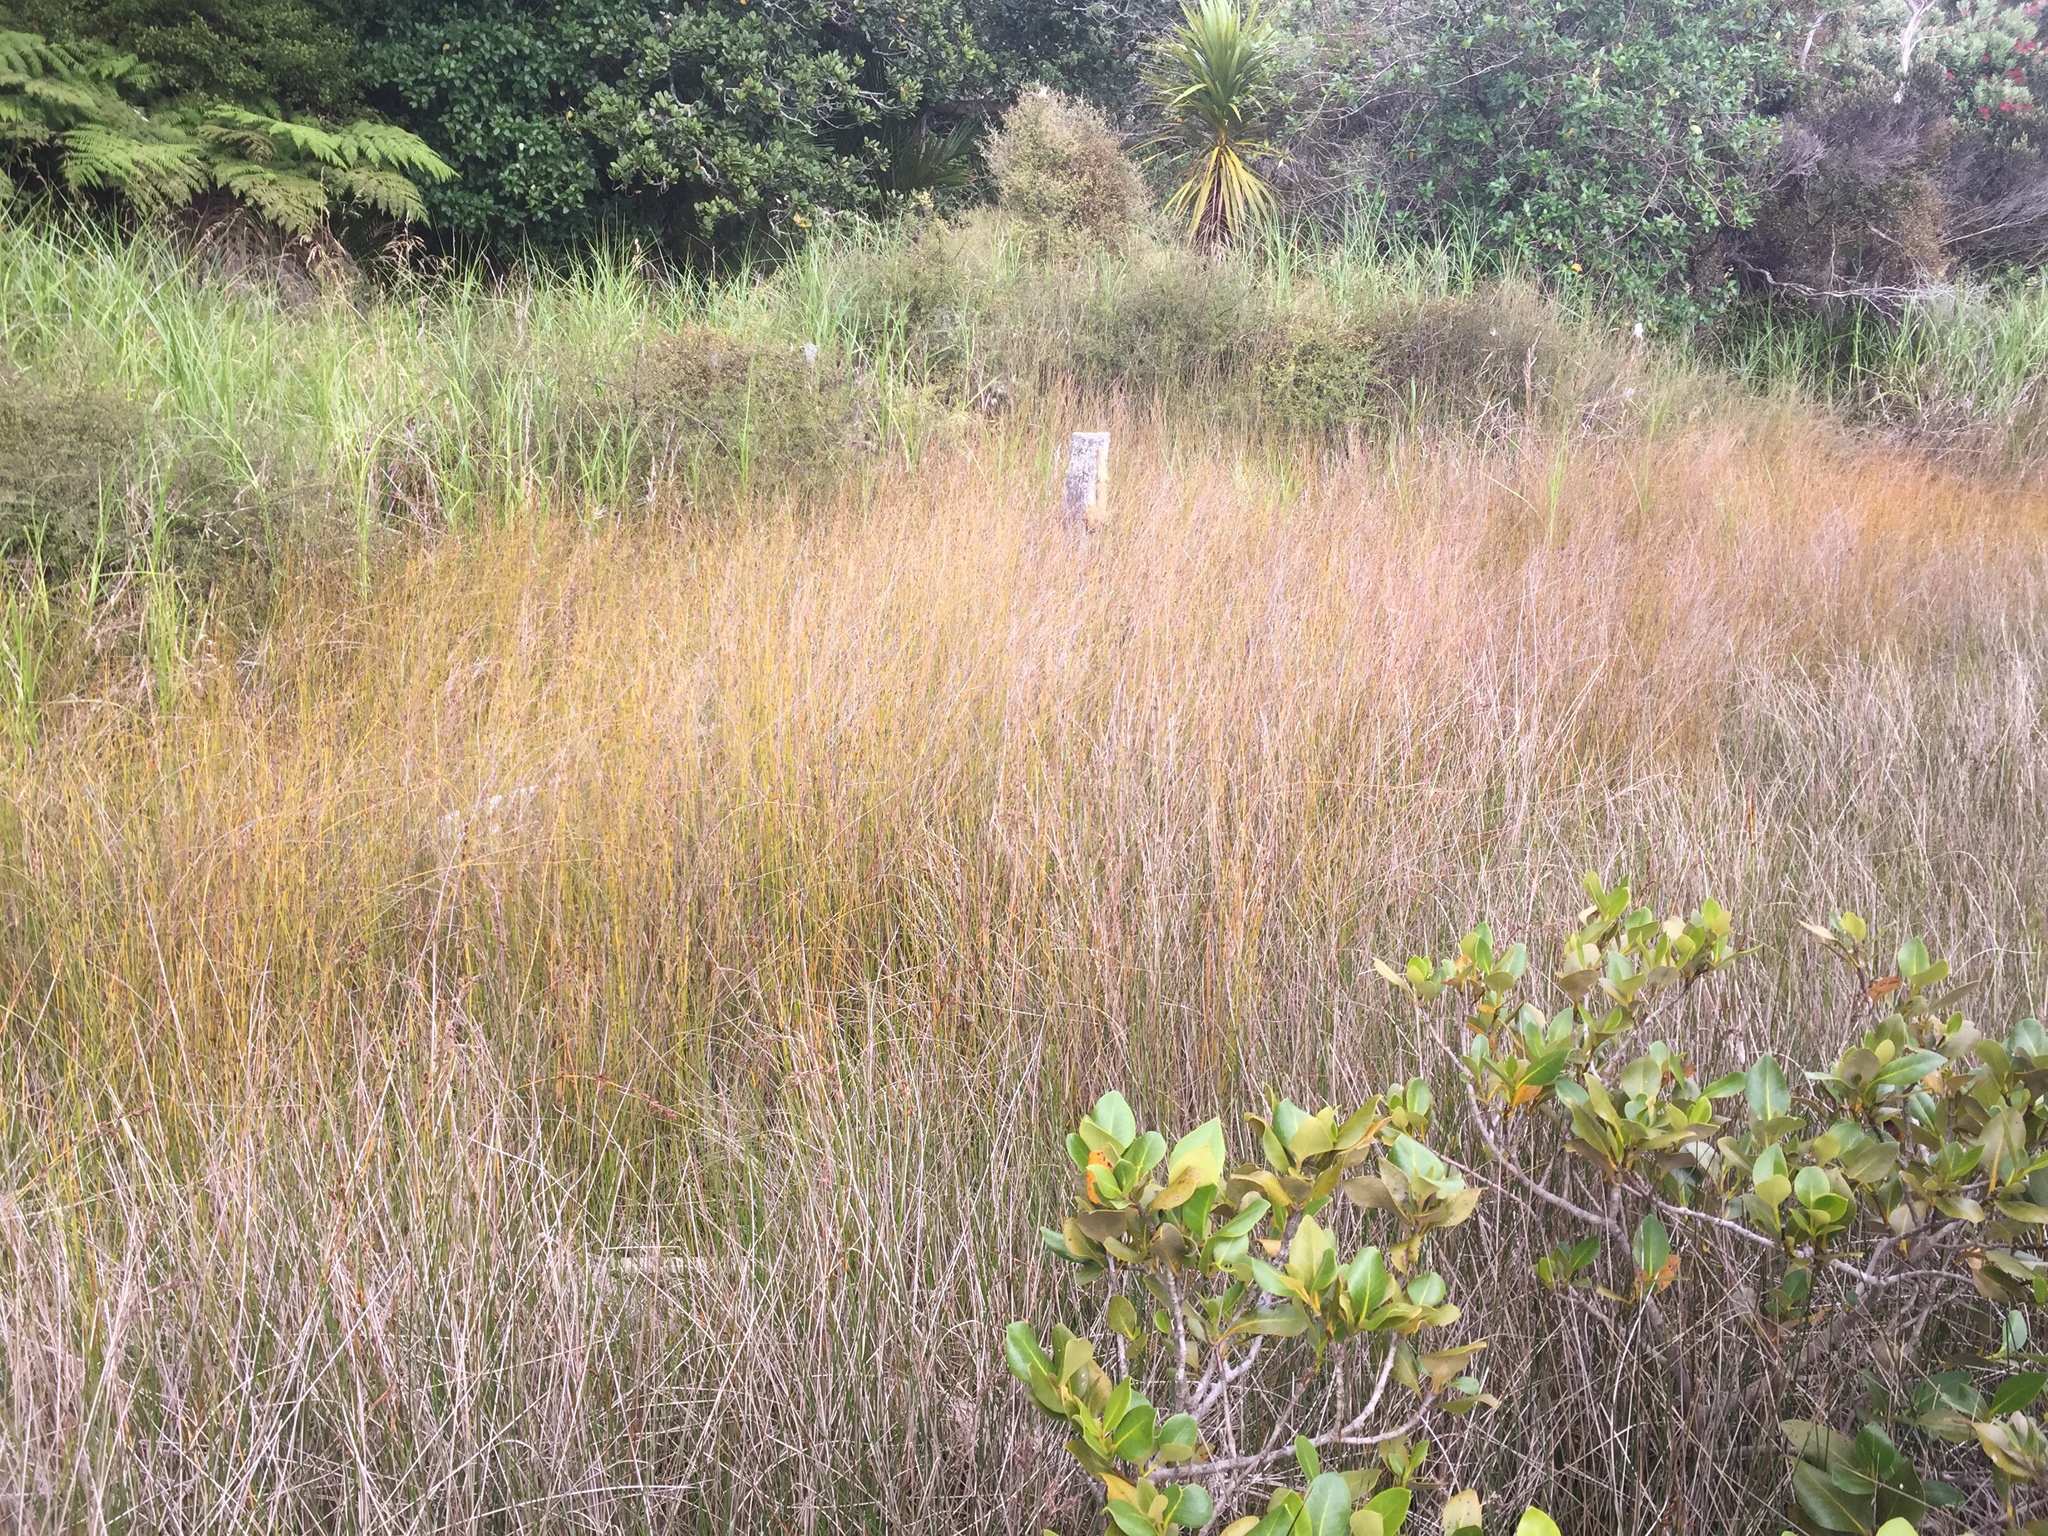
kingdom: Plantae
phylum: Tracheophyta
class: Liliopsida
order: Poales
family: Restionaceae
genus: Apodasmia
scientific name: Apodasmia similis
